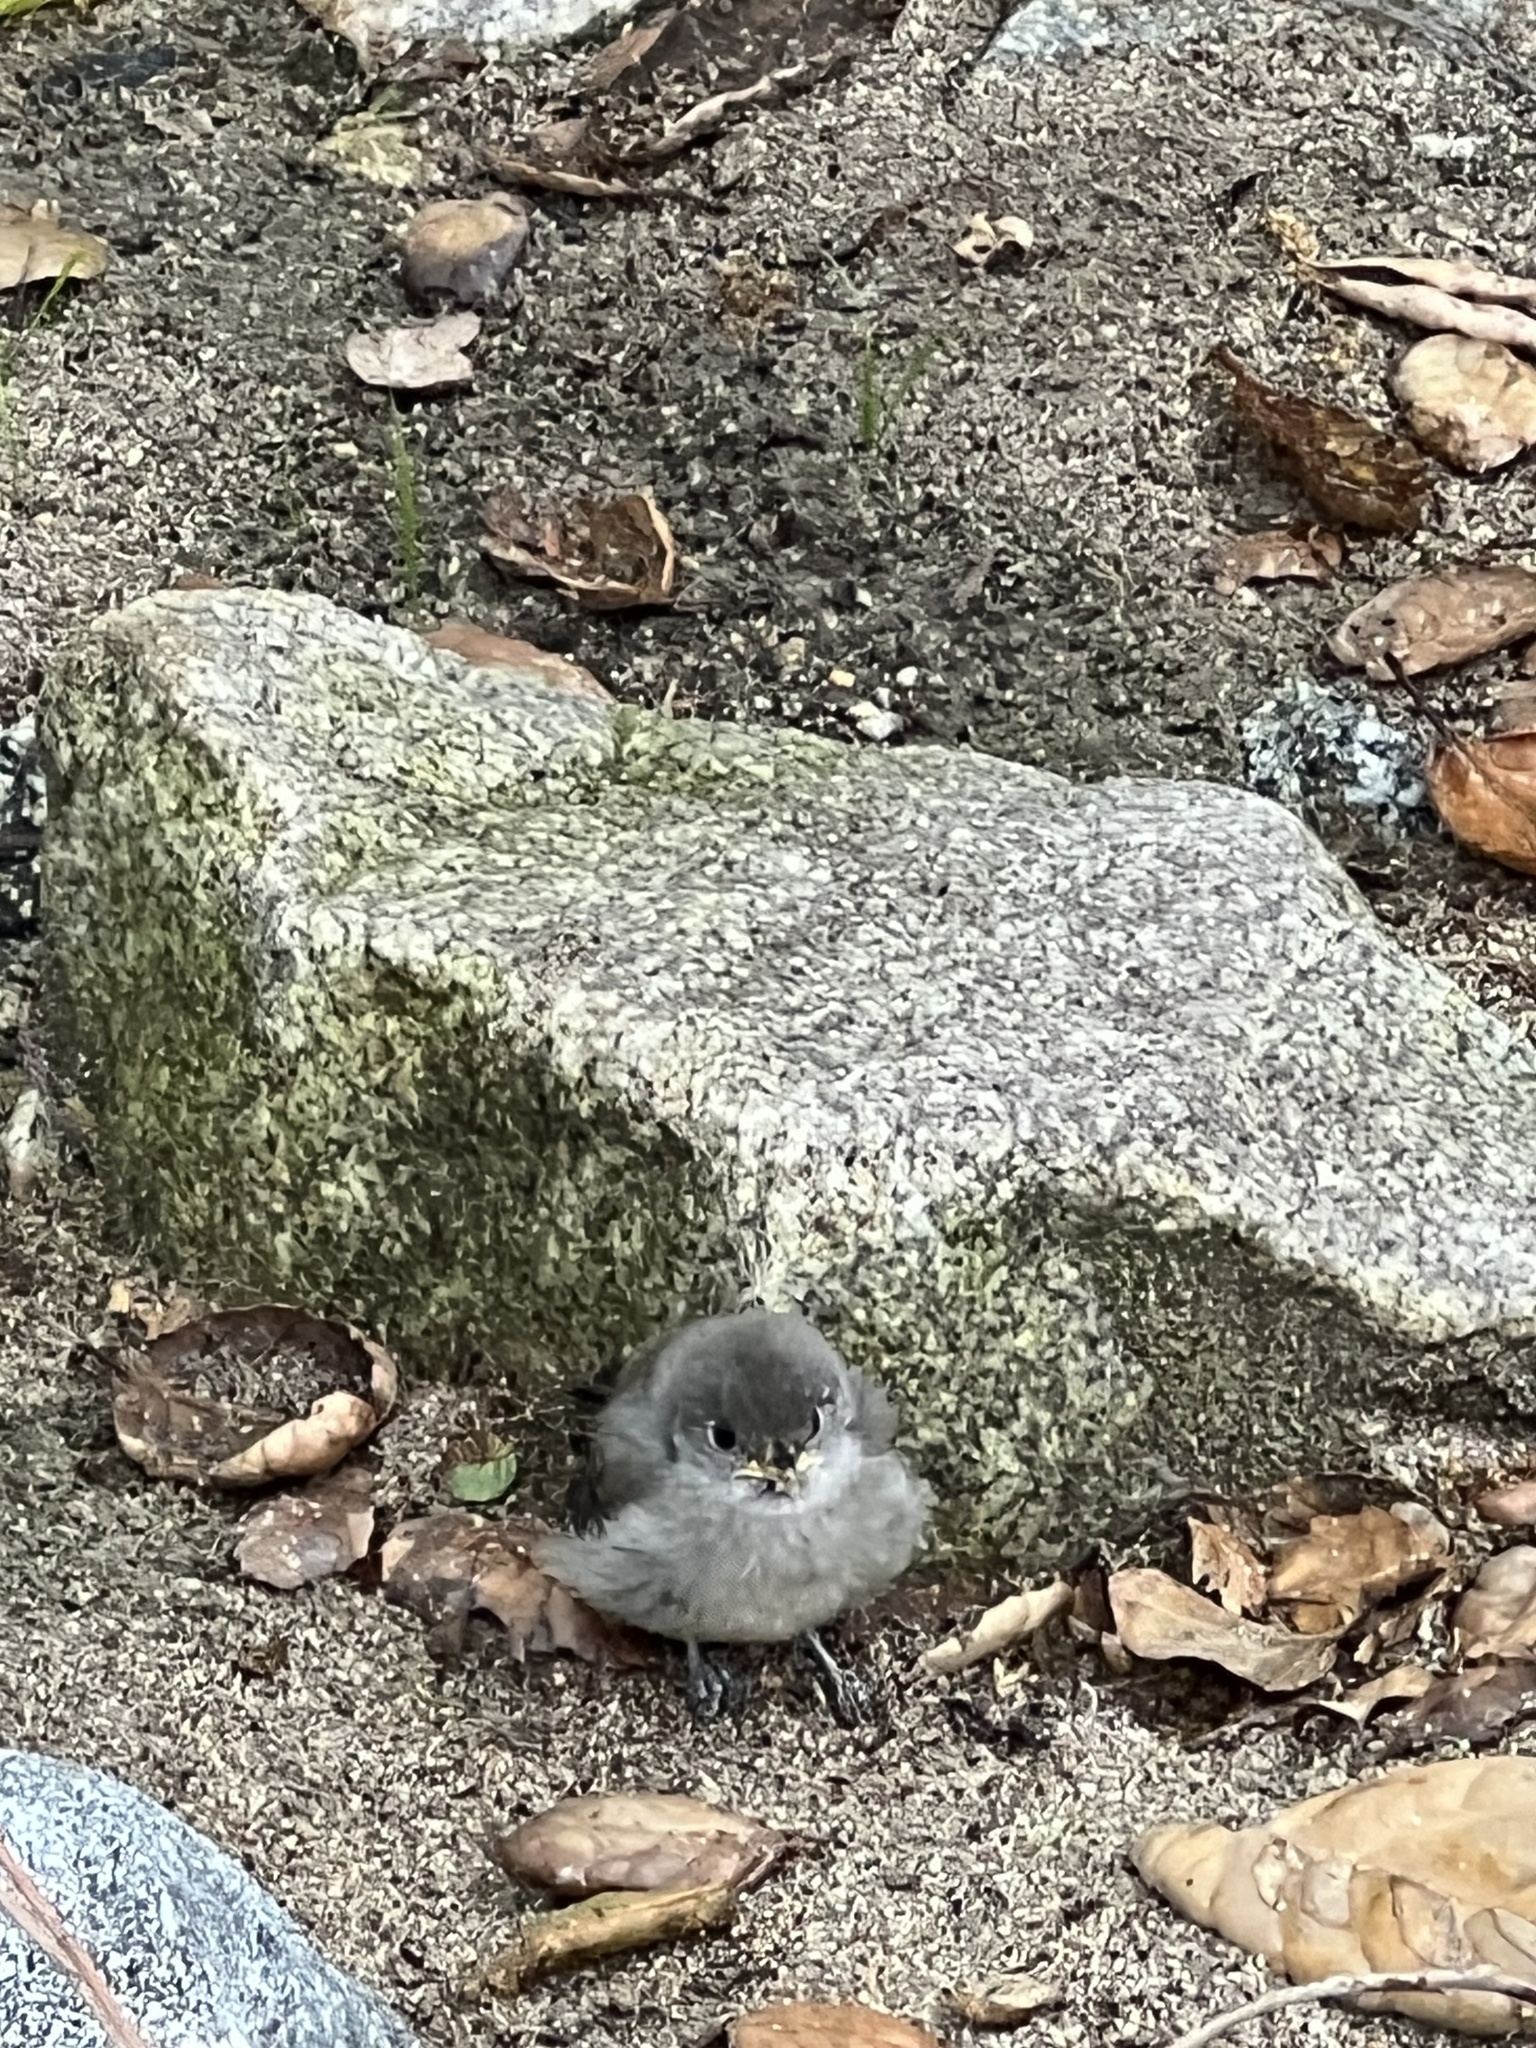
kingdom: Animalia
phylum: Chordata
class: Aves
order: Passeriformes
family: Paridae
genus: Baeolophus
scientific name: Baeolophus inornatus
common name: Oak titmouse
